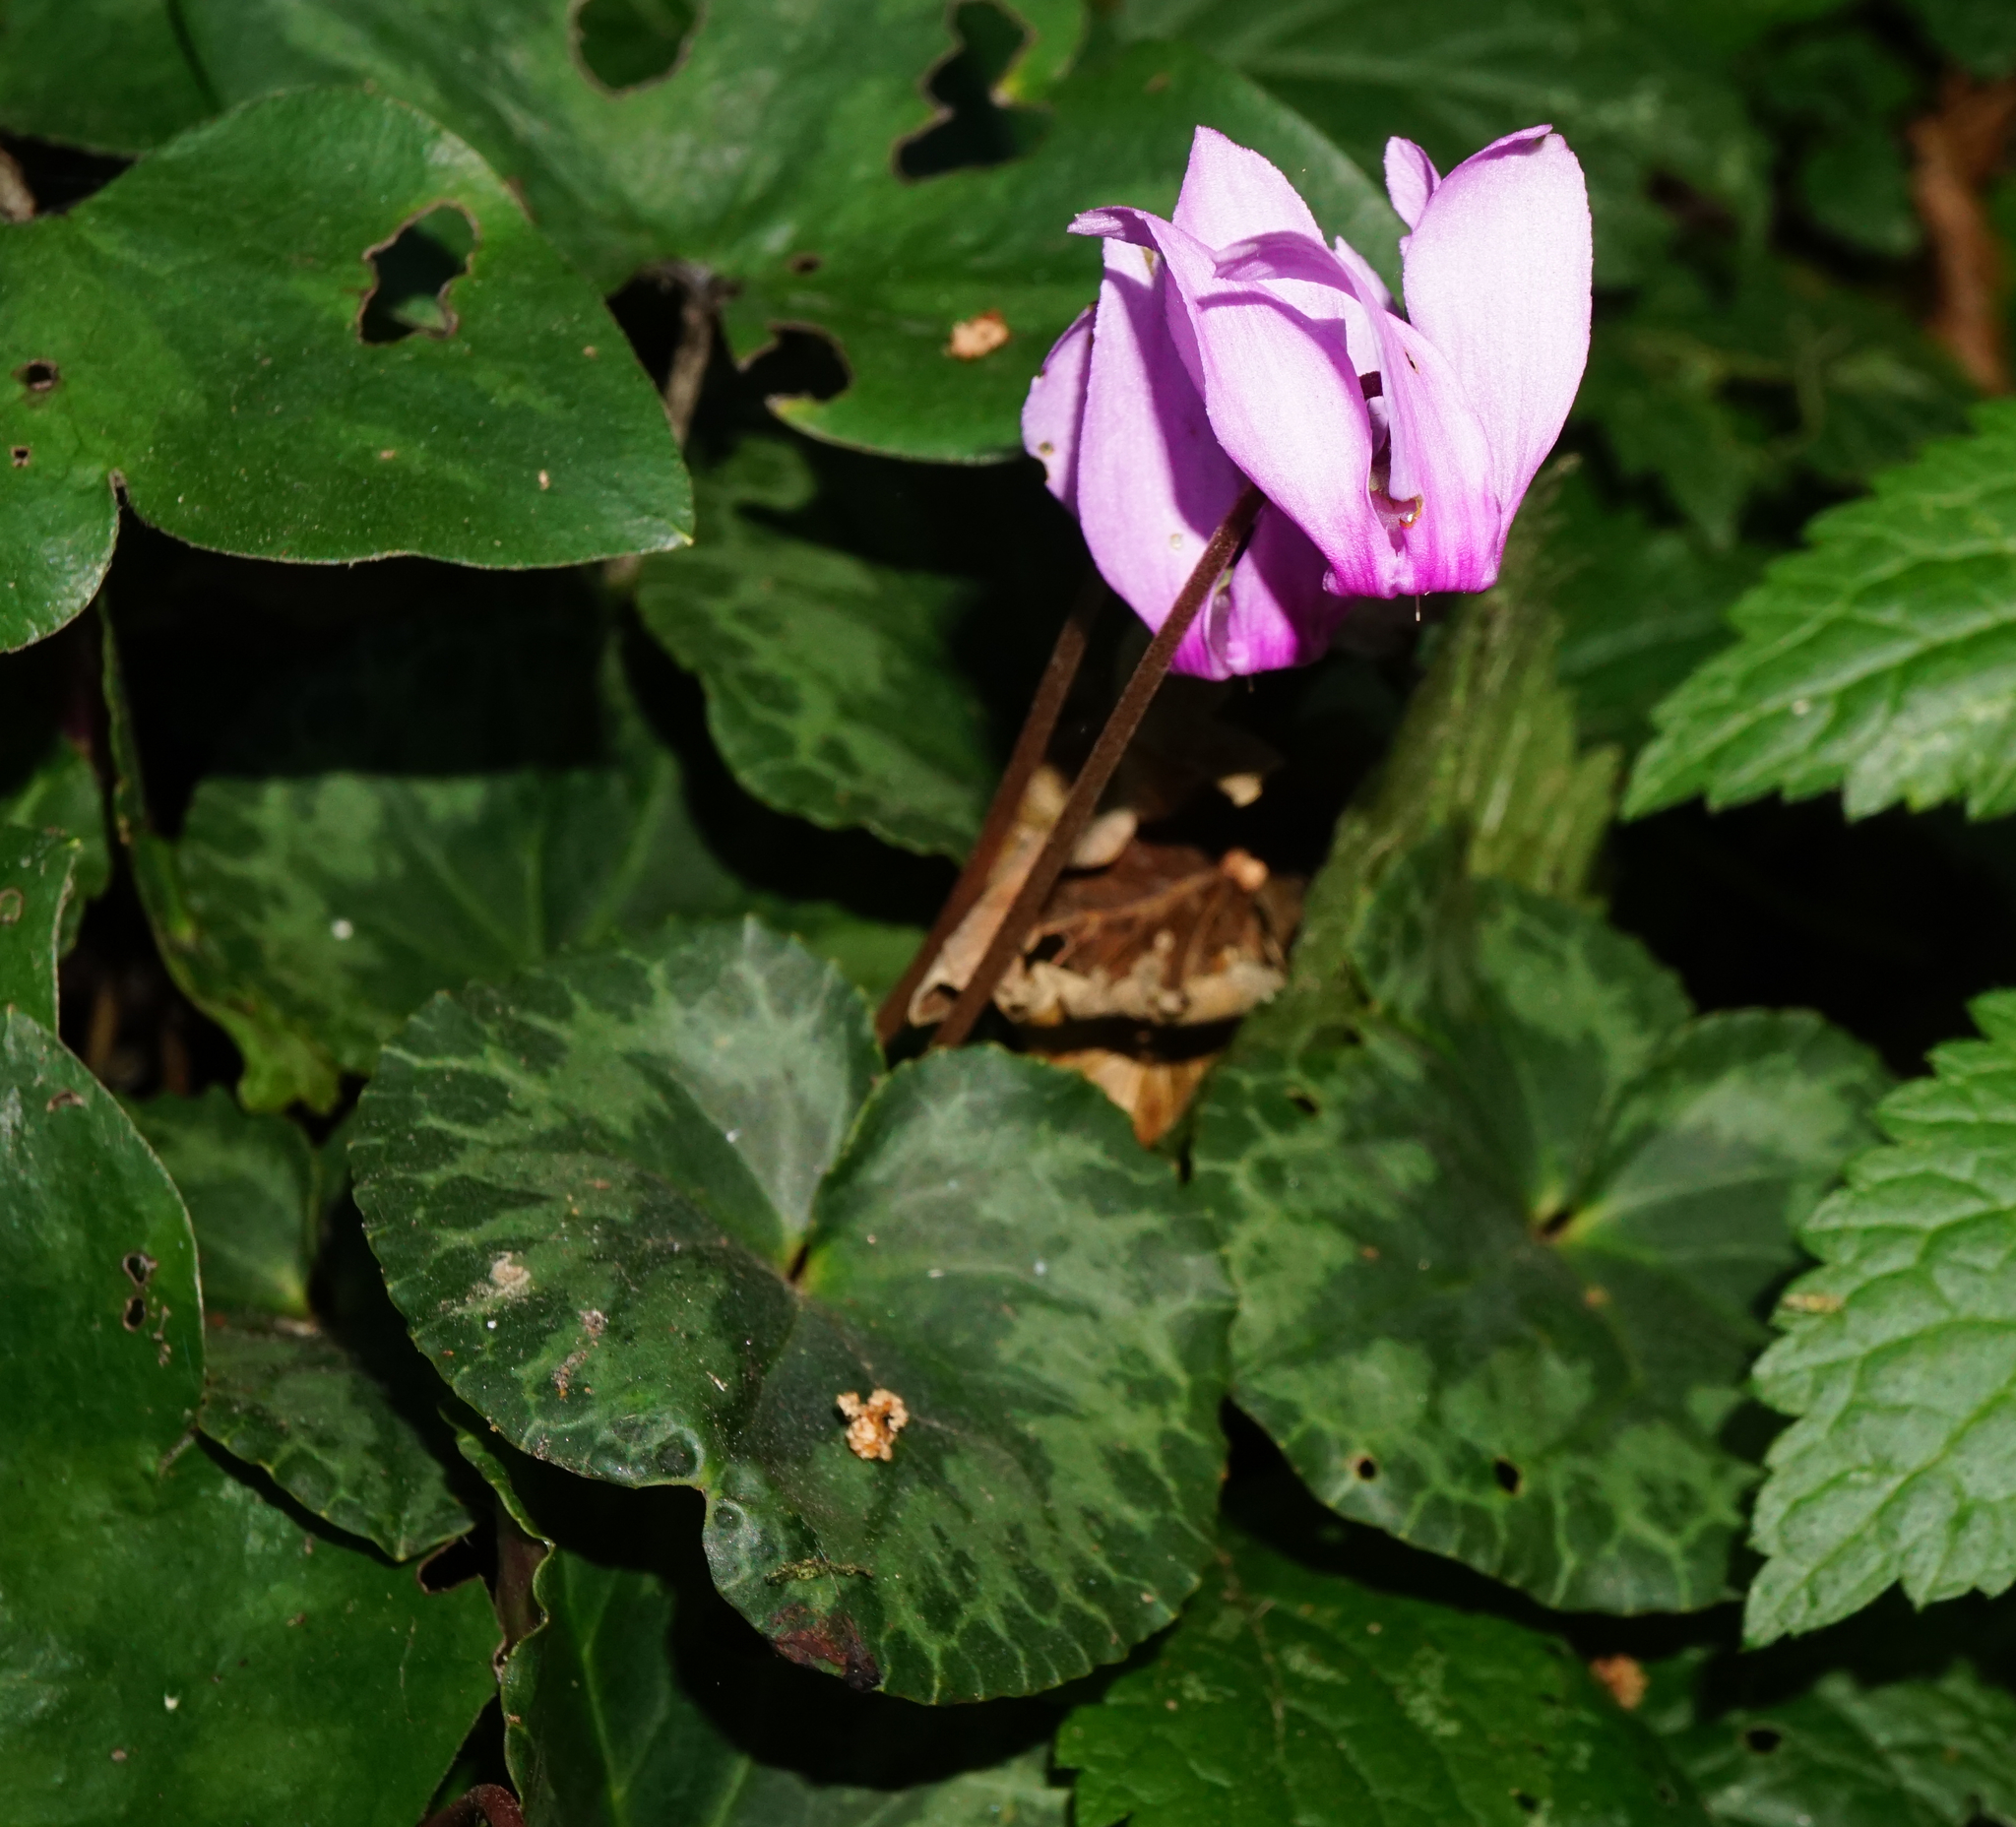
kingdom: Plantae
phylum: Tracheophyta
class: Magnoliopsida
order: Ericales
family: Primulaceae
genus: Cyclamen
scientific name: Cyclamen purpurascens
